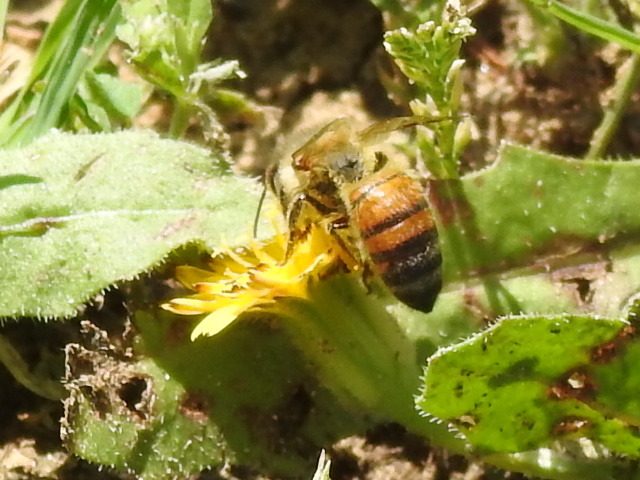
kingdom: Animalia
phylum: Arthropoda
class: Insecta
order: Hymenoptera
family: Apidae
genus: Apis
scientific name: Apis mellifera
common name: Honey bee
